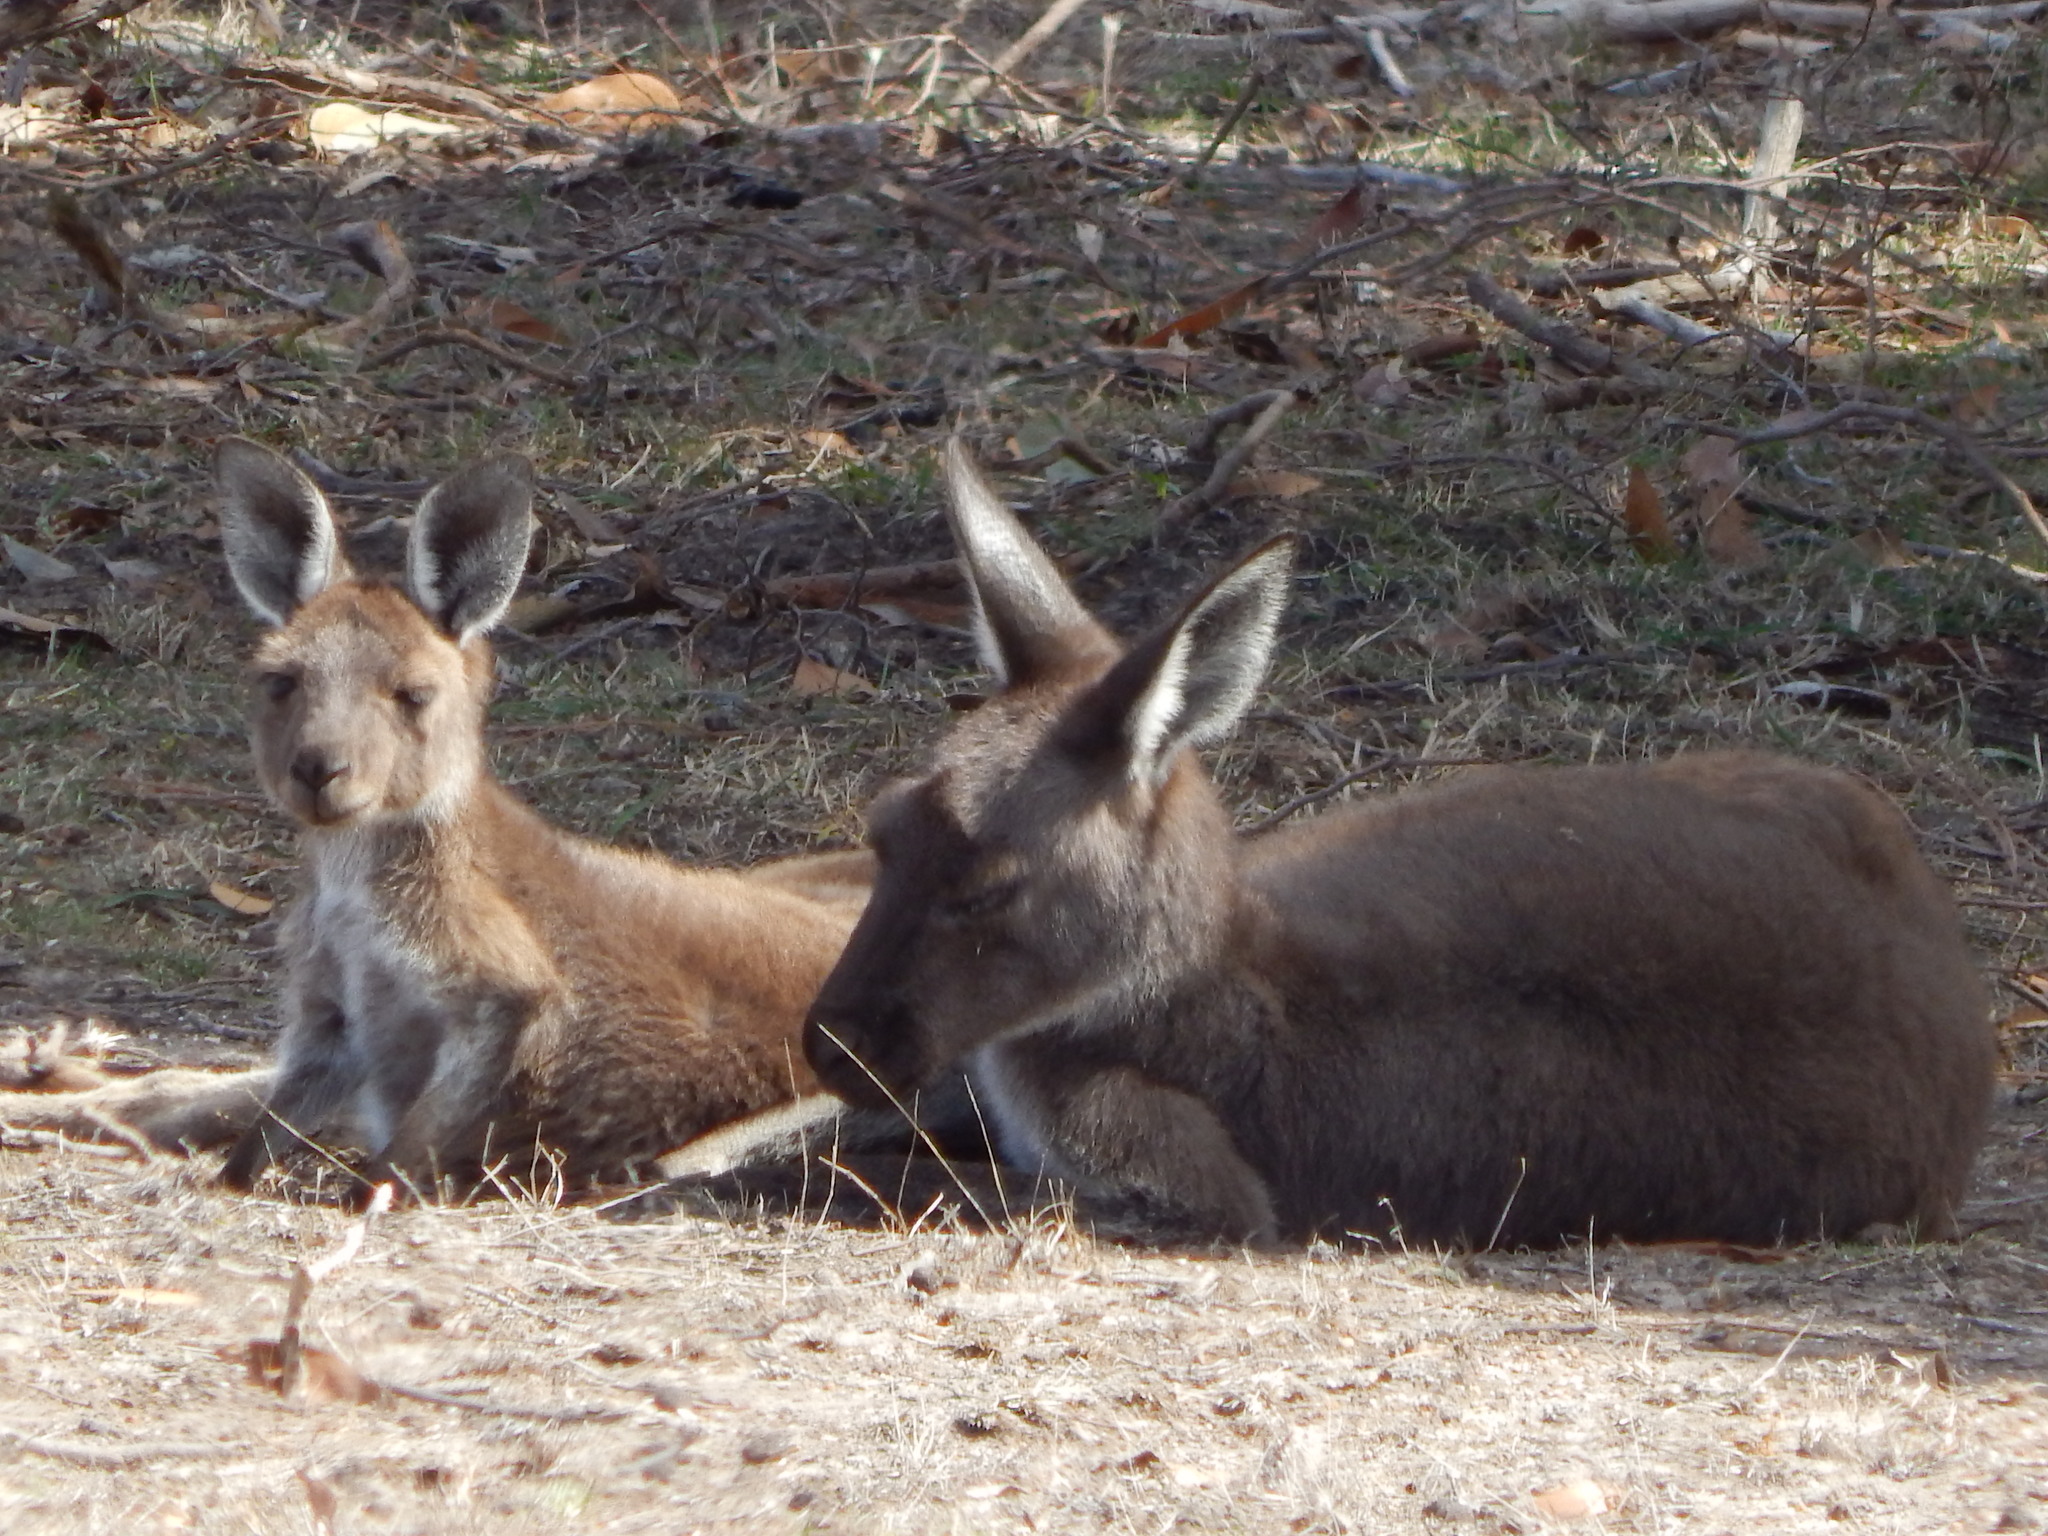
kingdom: Animalia
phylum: Chordata
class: Mammalia
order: Diprotodontia
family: Macropodidae
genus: Macropus
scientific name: Macropus fuliginosus
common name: Western grey kangaroo
